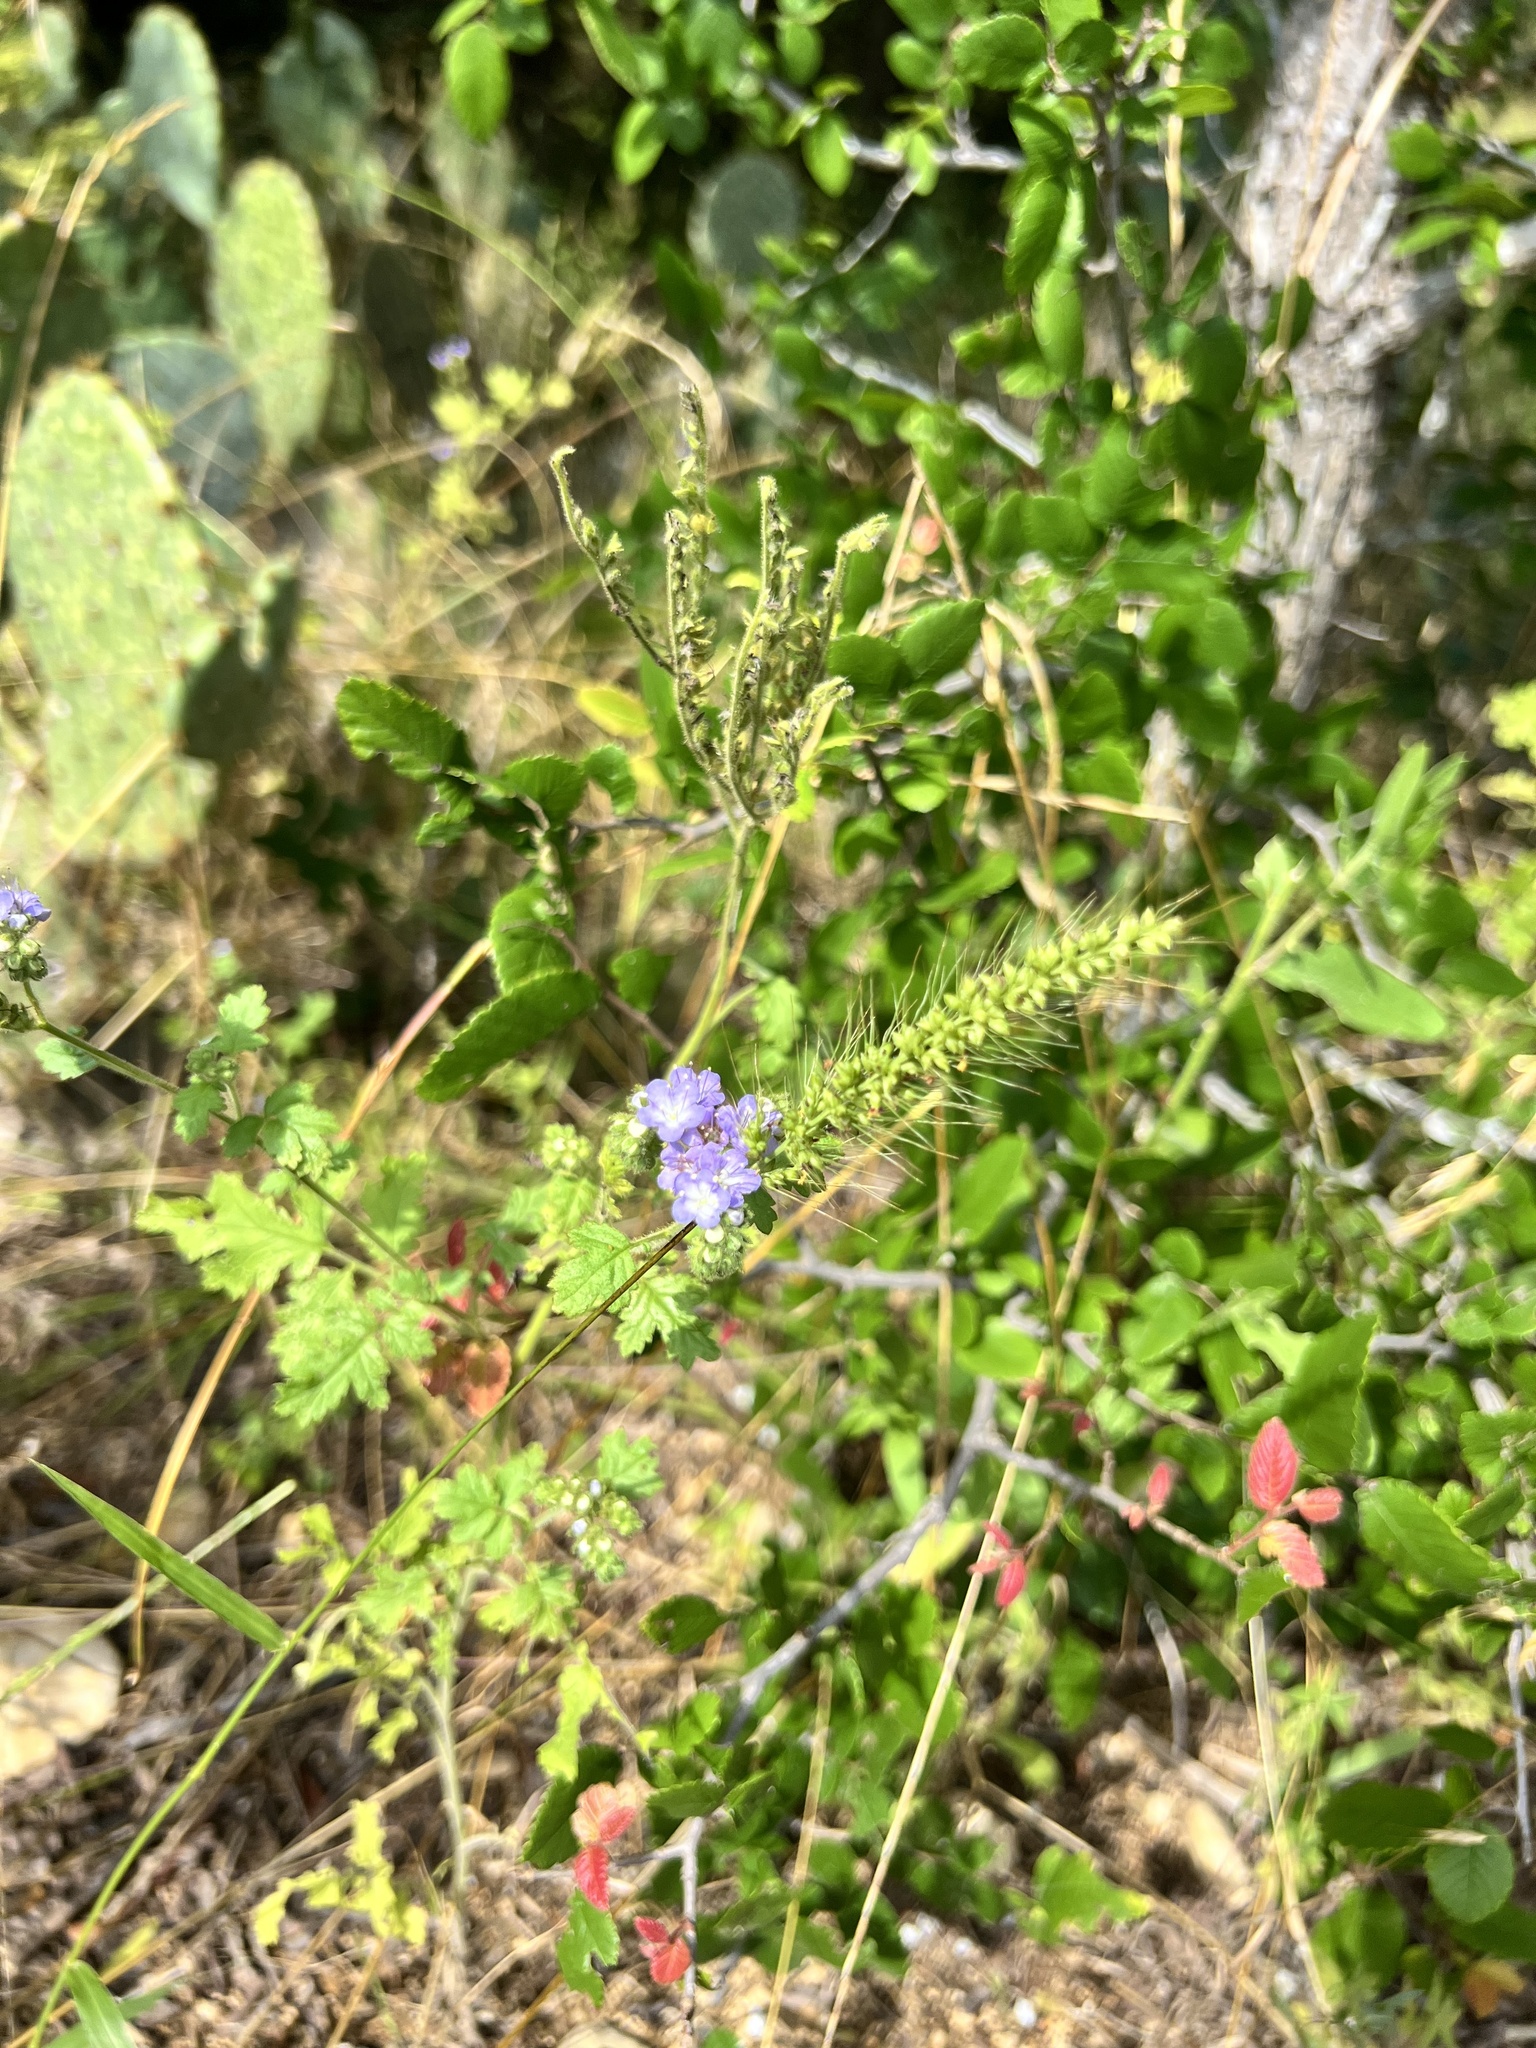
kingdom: Plantae
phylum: Tracheophyta
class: Magnoliopsida
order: Boraginales
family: Hydrophyllaceae
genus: Phacelia
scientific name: Phacelia congesta
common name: Blue curls
